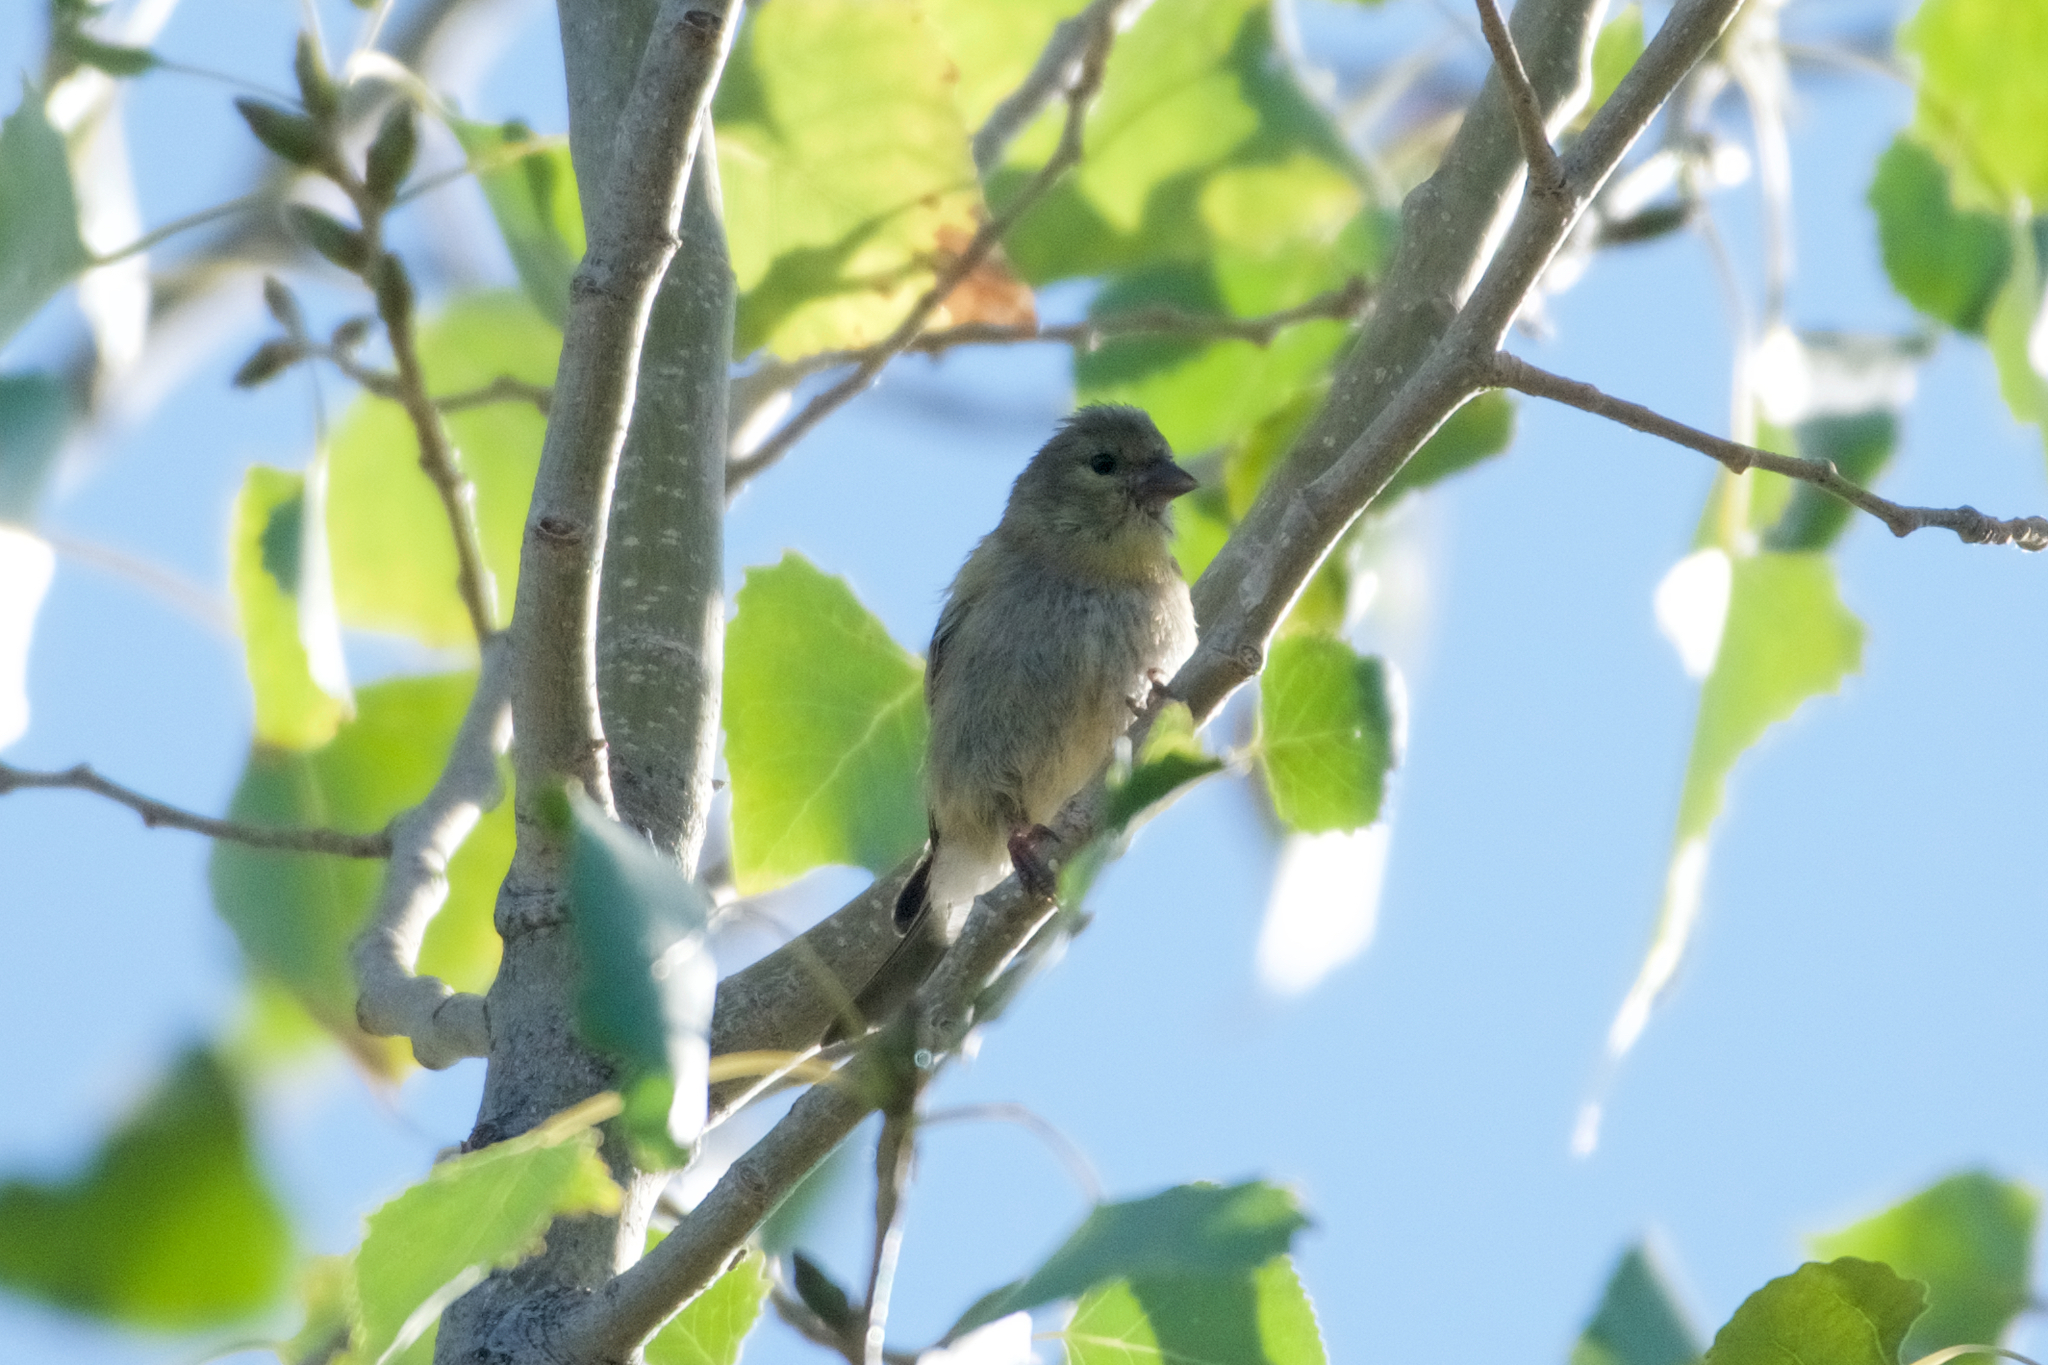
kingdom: Animalia
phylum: Chordata
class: Aves
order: Passeriformes
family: Fringillidae
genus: Spinus
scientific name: Spinus tristis
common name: American goldfinch
